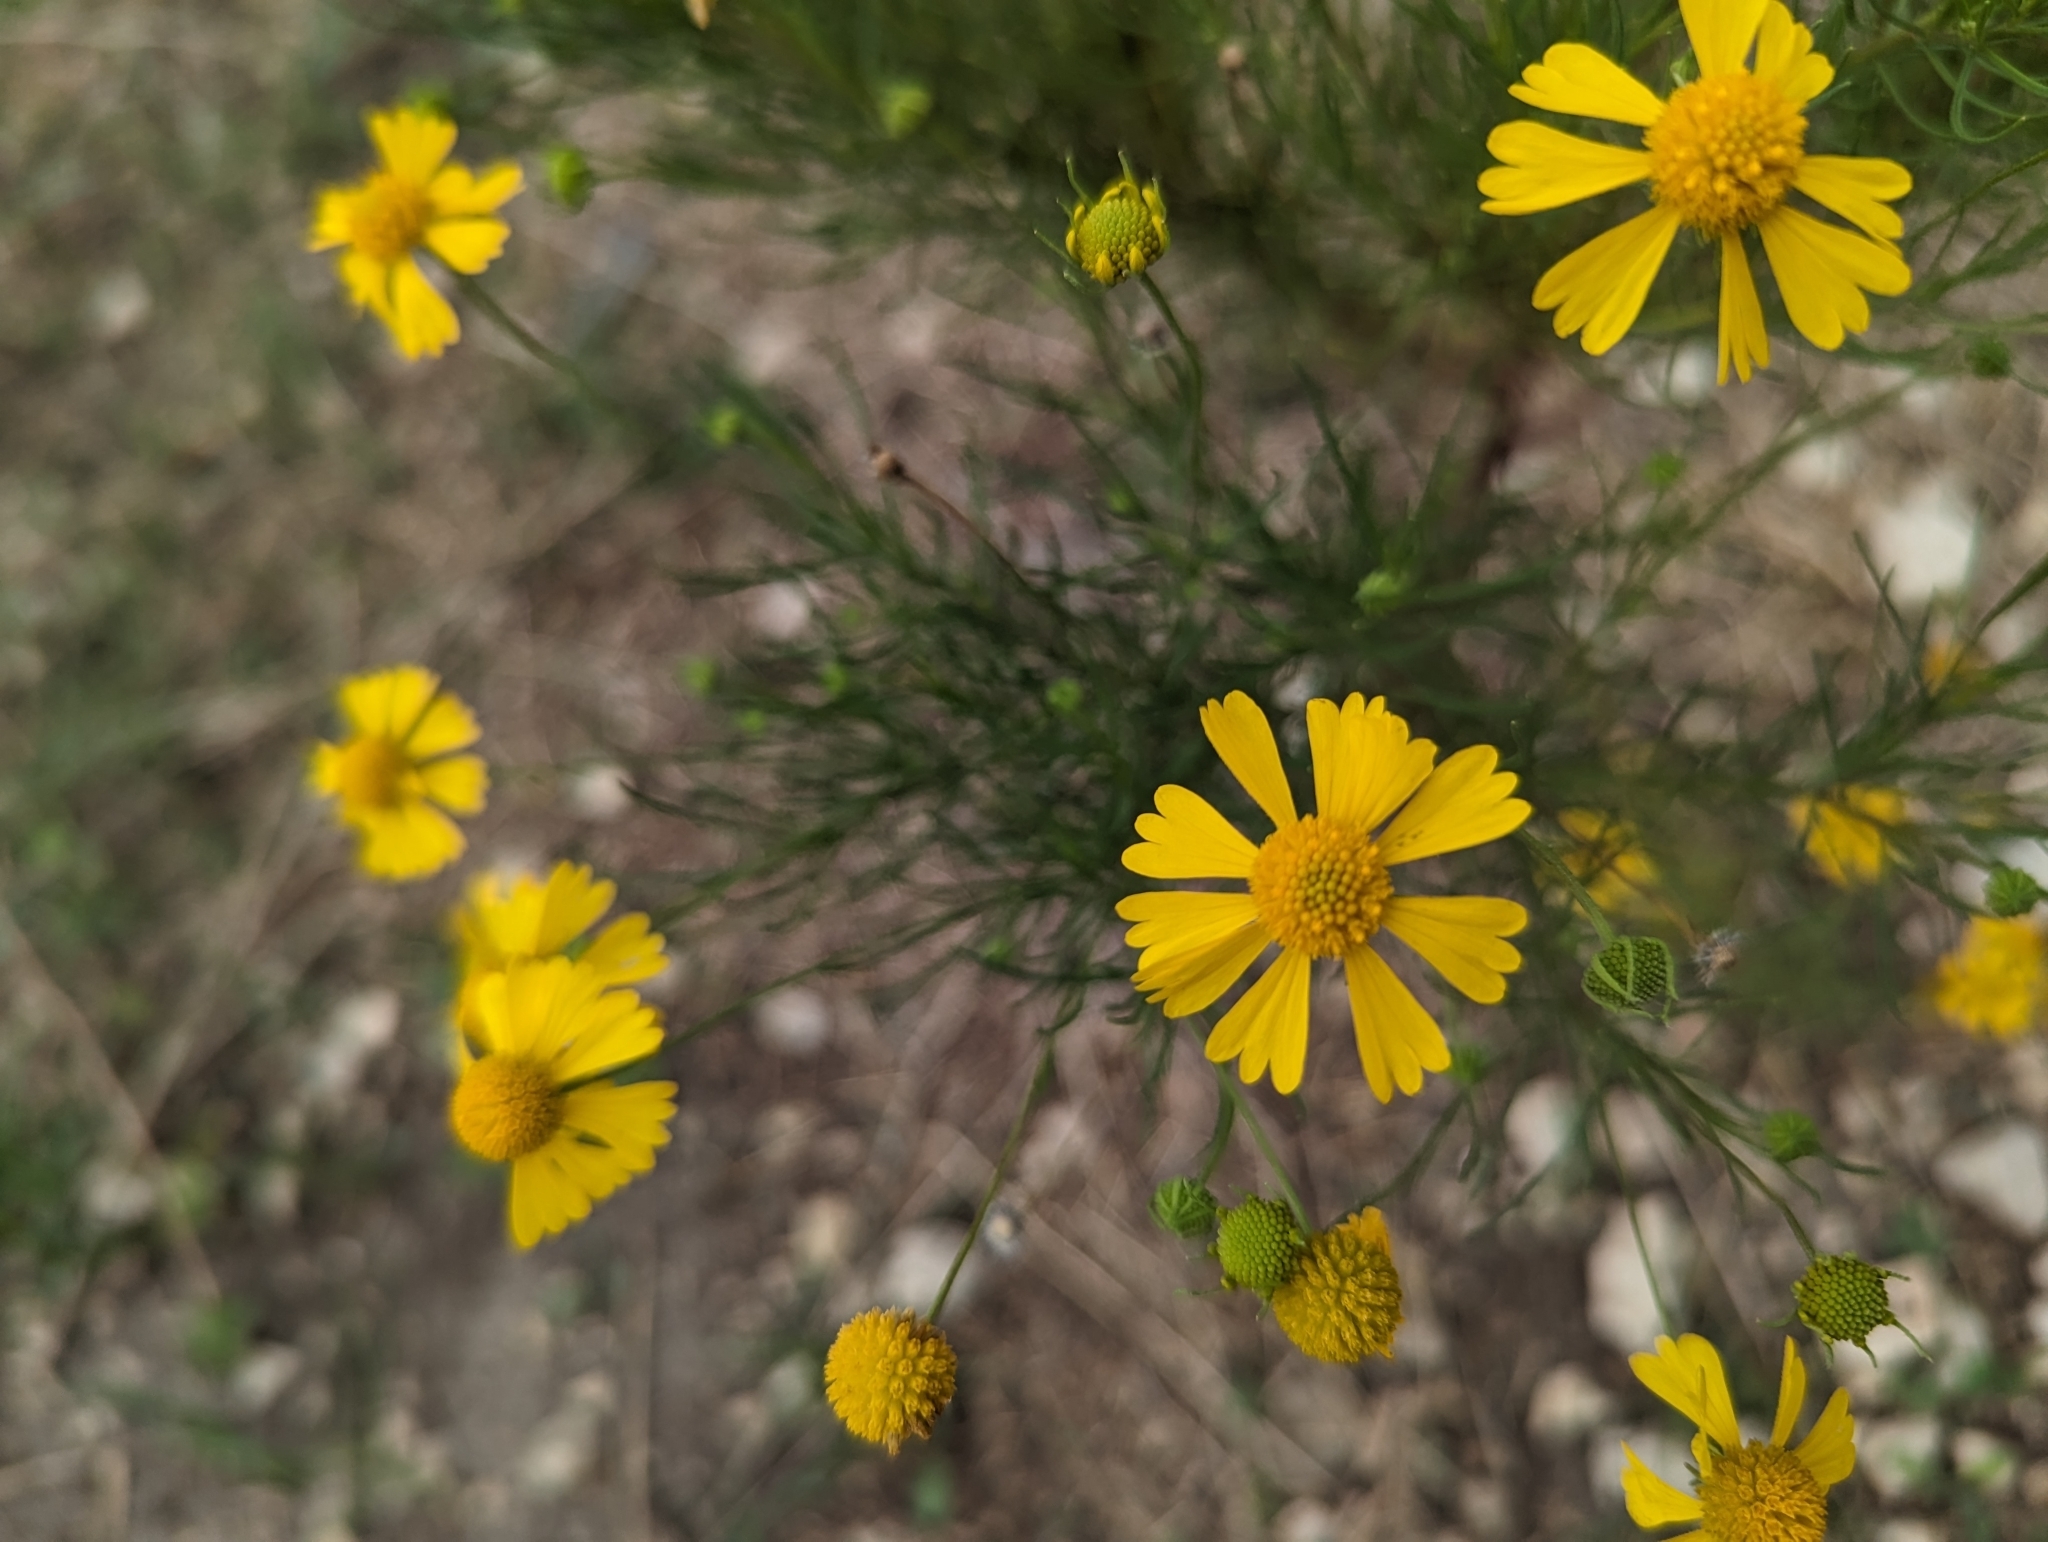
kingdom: Plantae
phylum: Tracheophyta
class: Magnoliopsida
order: Asterales
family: Asteraceae
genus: Helenium
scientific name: Helenium amarum
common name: Bitter sneezeweed
